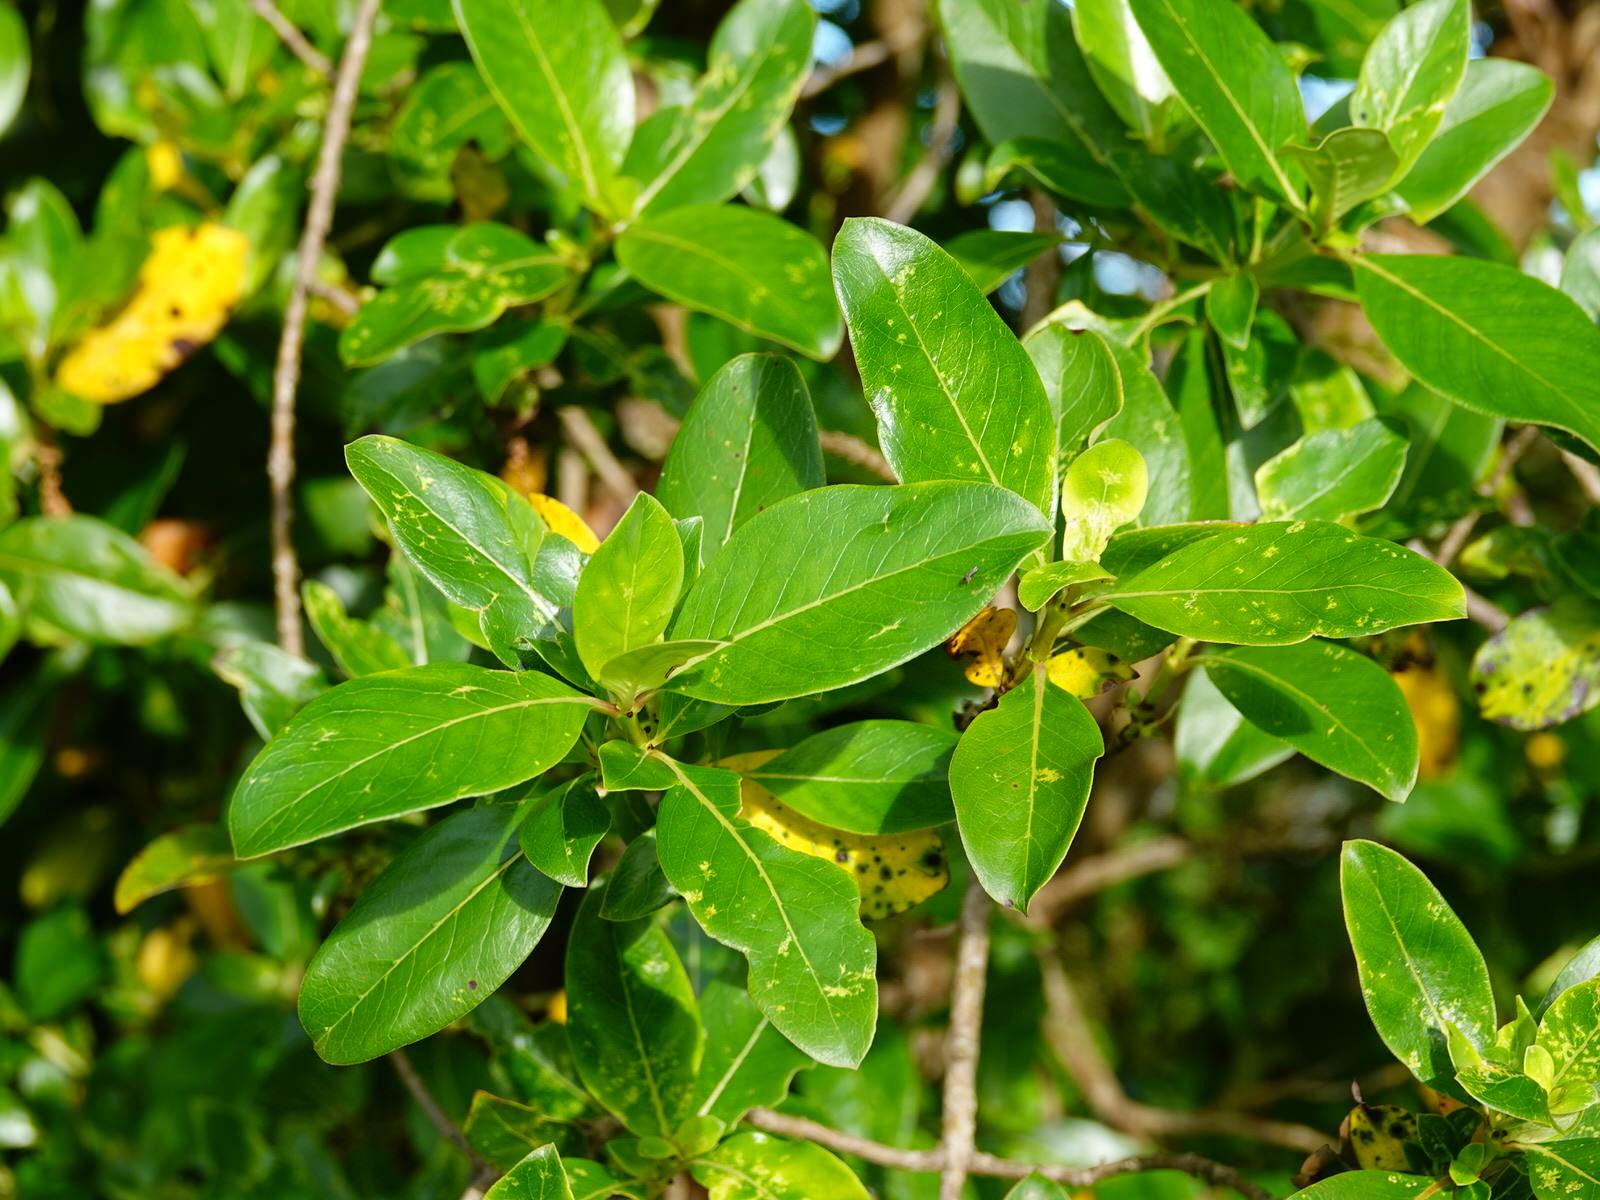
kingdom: Plantae
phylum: Tracheophyta
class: Magnoliopsida
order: Gentianales
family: Rubiaceae
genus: Coprosma
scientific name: Coprosma robusta
